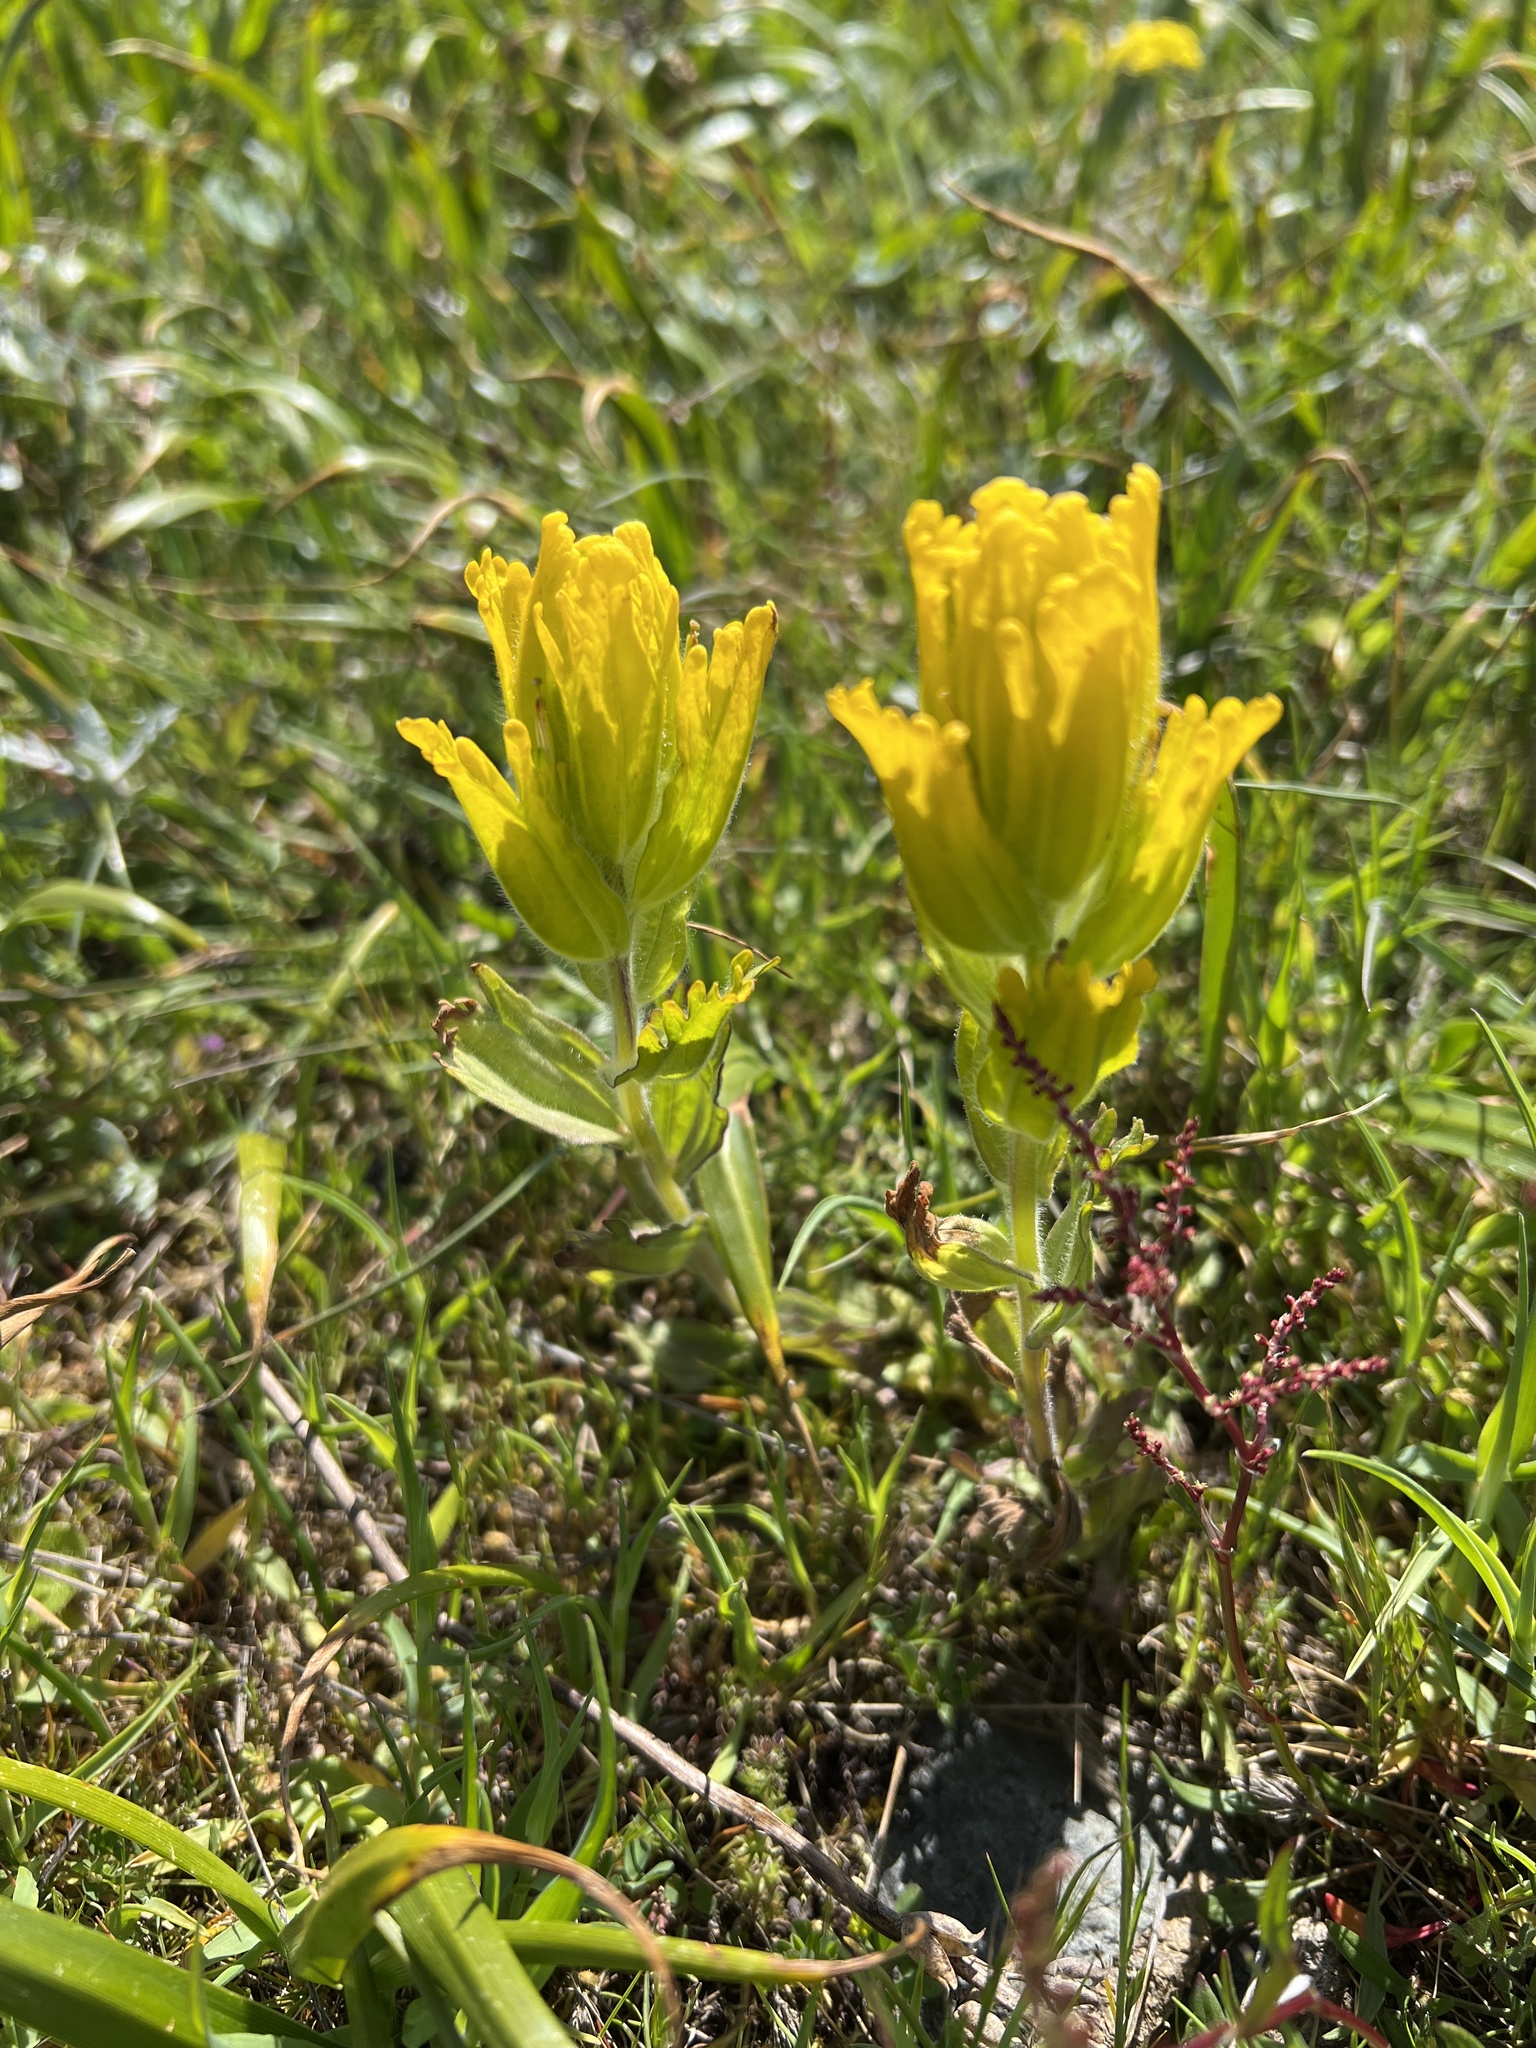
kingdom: Plantae
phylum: Tracheophyta
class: Magnoliopsida
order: Lamiales
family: Orobanchaceae
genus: Castilleja
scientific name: Castilleja levisecta
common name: Golden paintbrush
